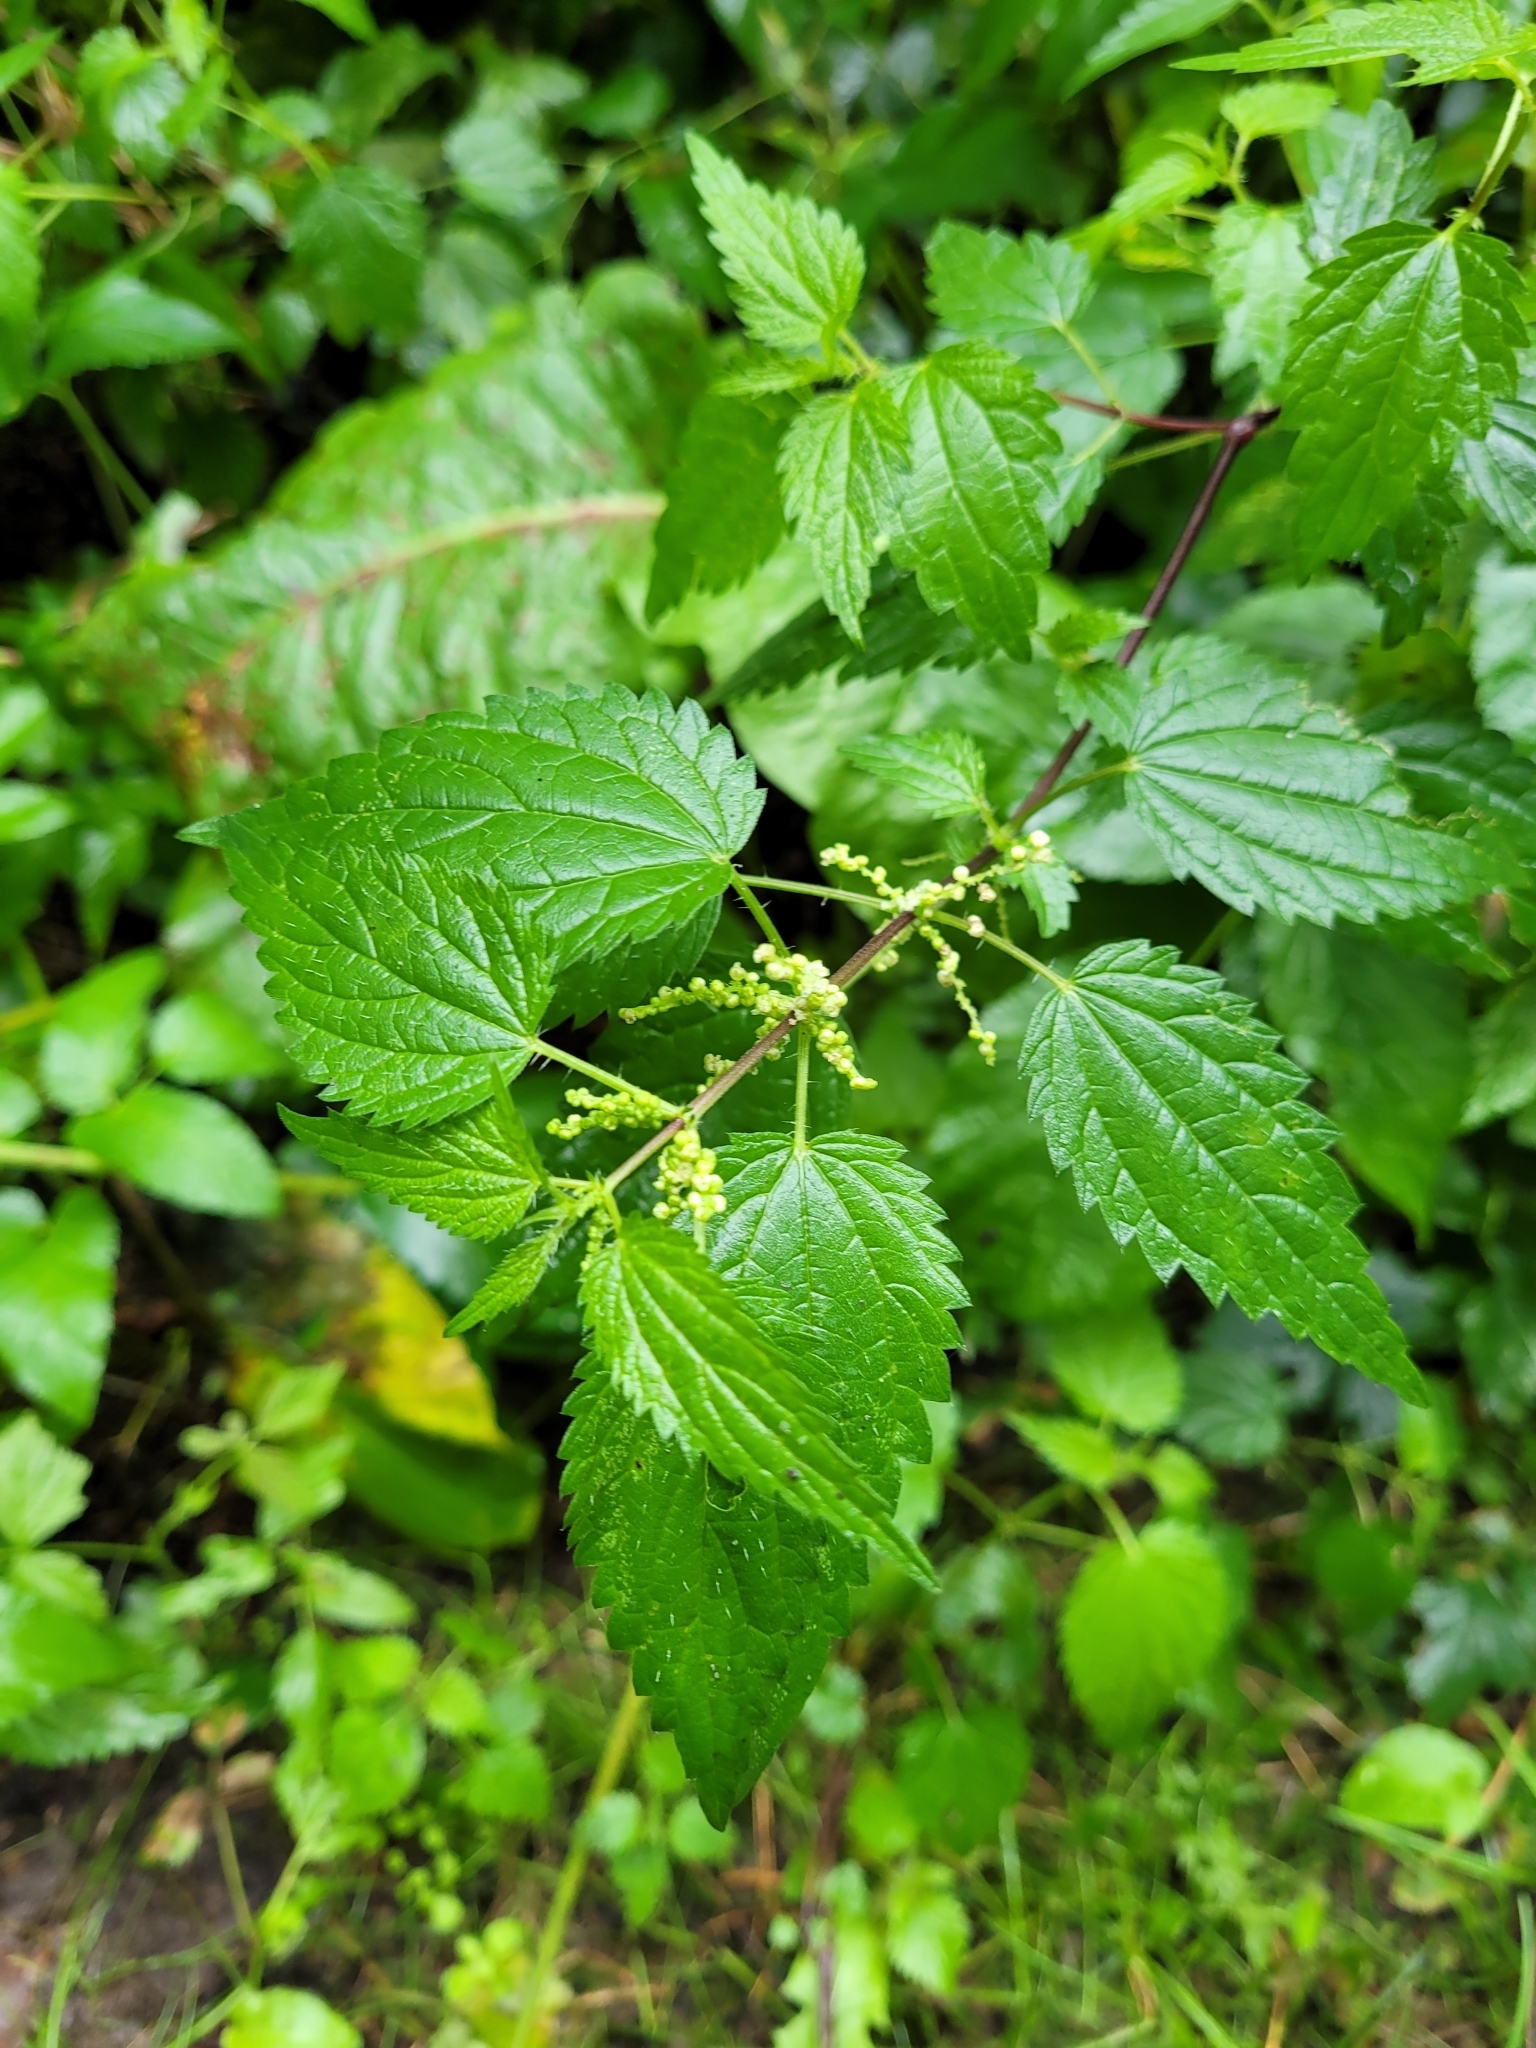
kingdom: Plantae
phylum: Tracheophyta
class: Magnoliopsida
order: Rosales
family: Urticaceae
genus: Urtica
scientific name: Urtica dioica
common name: Common nettle
